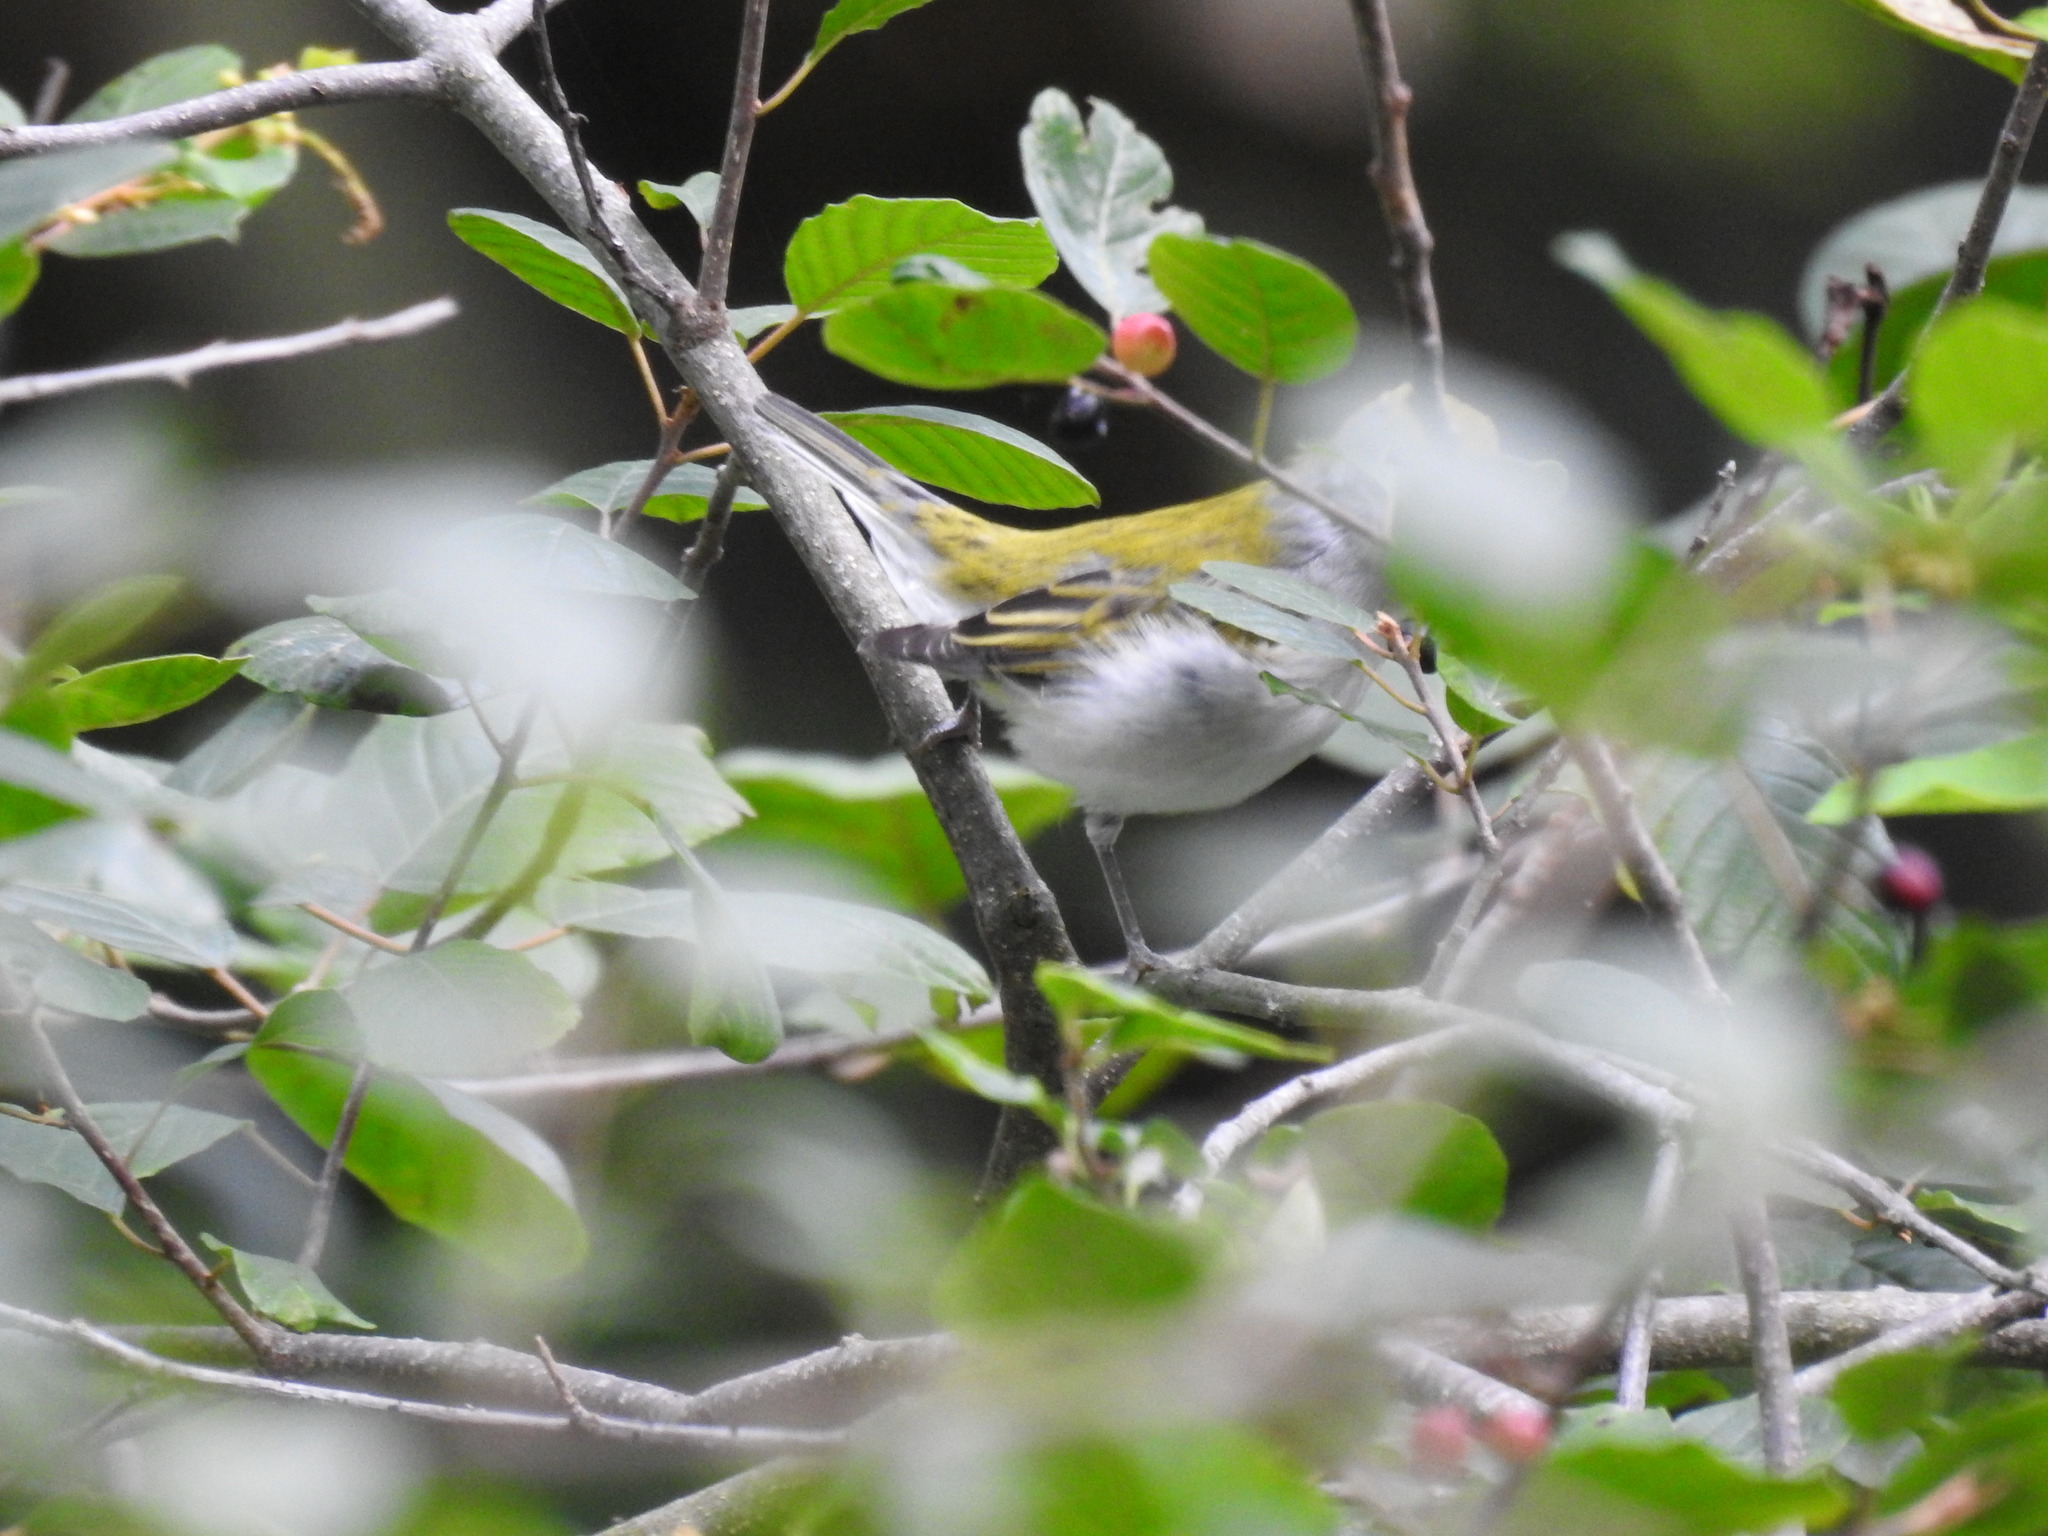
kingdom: Animalia
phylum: Chordata
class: Aves
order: Passeriformes
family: Parulidae
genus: Setophaga
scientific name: Setophaga pensylvanica
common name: Chestnut-sided warbler
